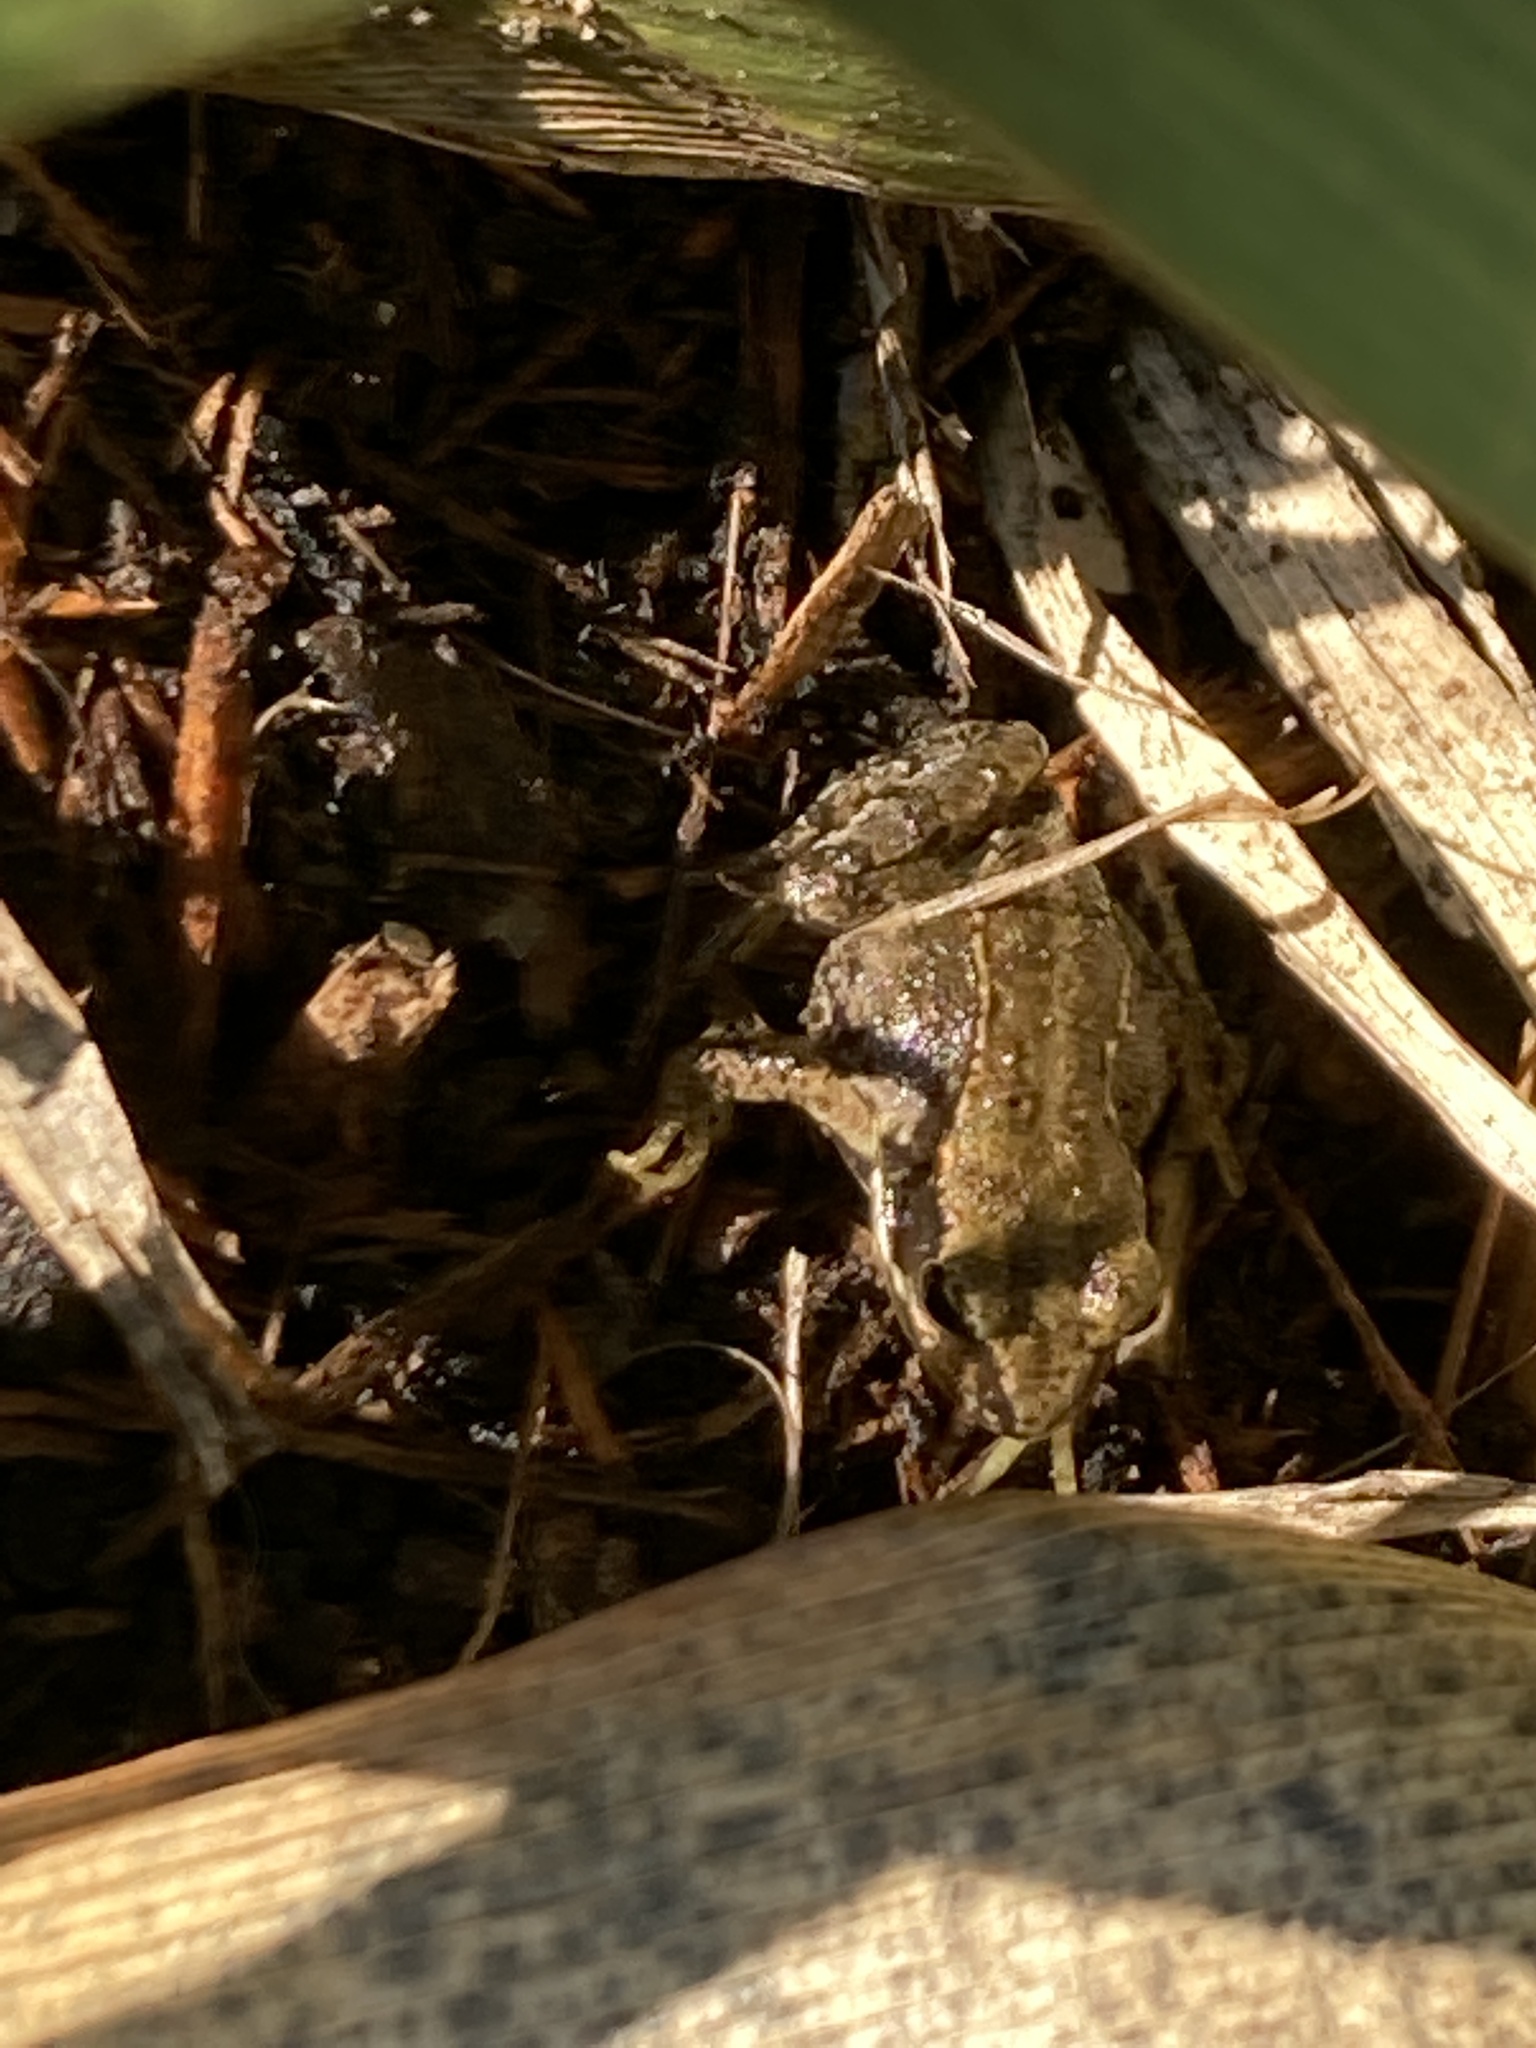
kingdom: Animalia
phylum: Chordata
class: Amphibia
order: Anura
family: Ranidae
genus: Rana
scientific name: Rana temporaria
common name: Common frog
